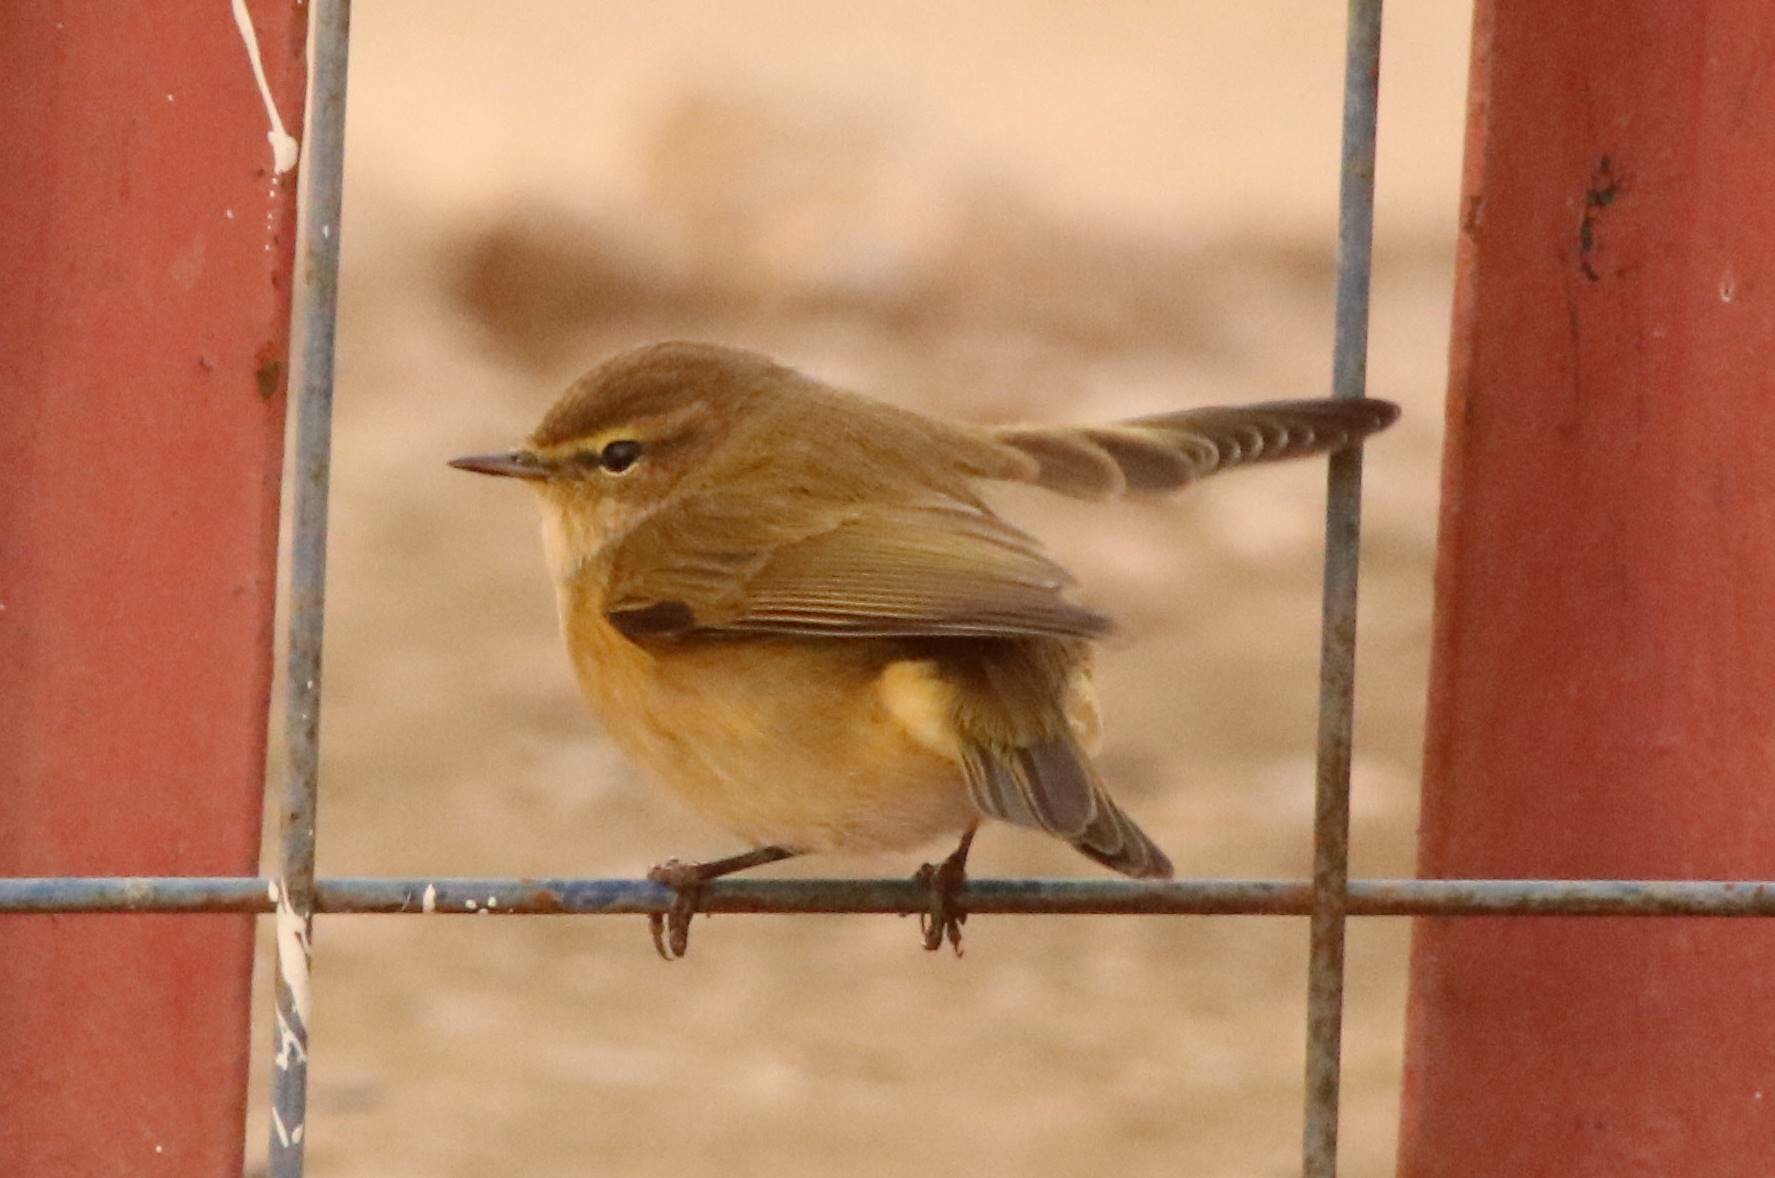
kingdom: Animalia
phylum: Chordata
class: Aves
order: Passeriformes
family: Phylloscopidae
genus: Phylloscopus
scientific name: Phylloscopus collybita
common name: Common chiffchaff
